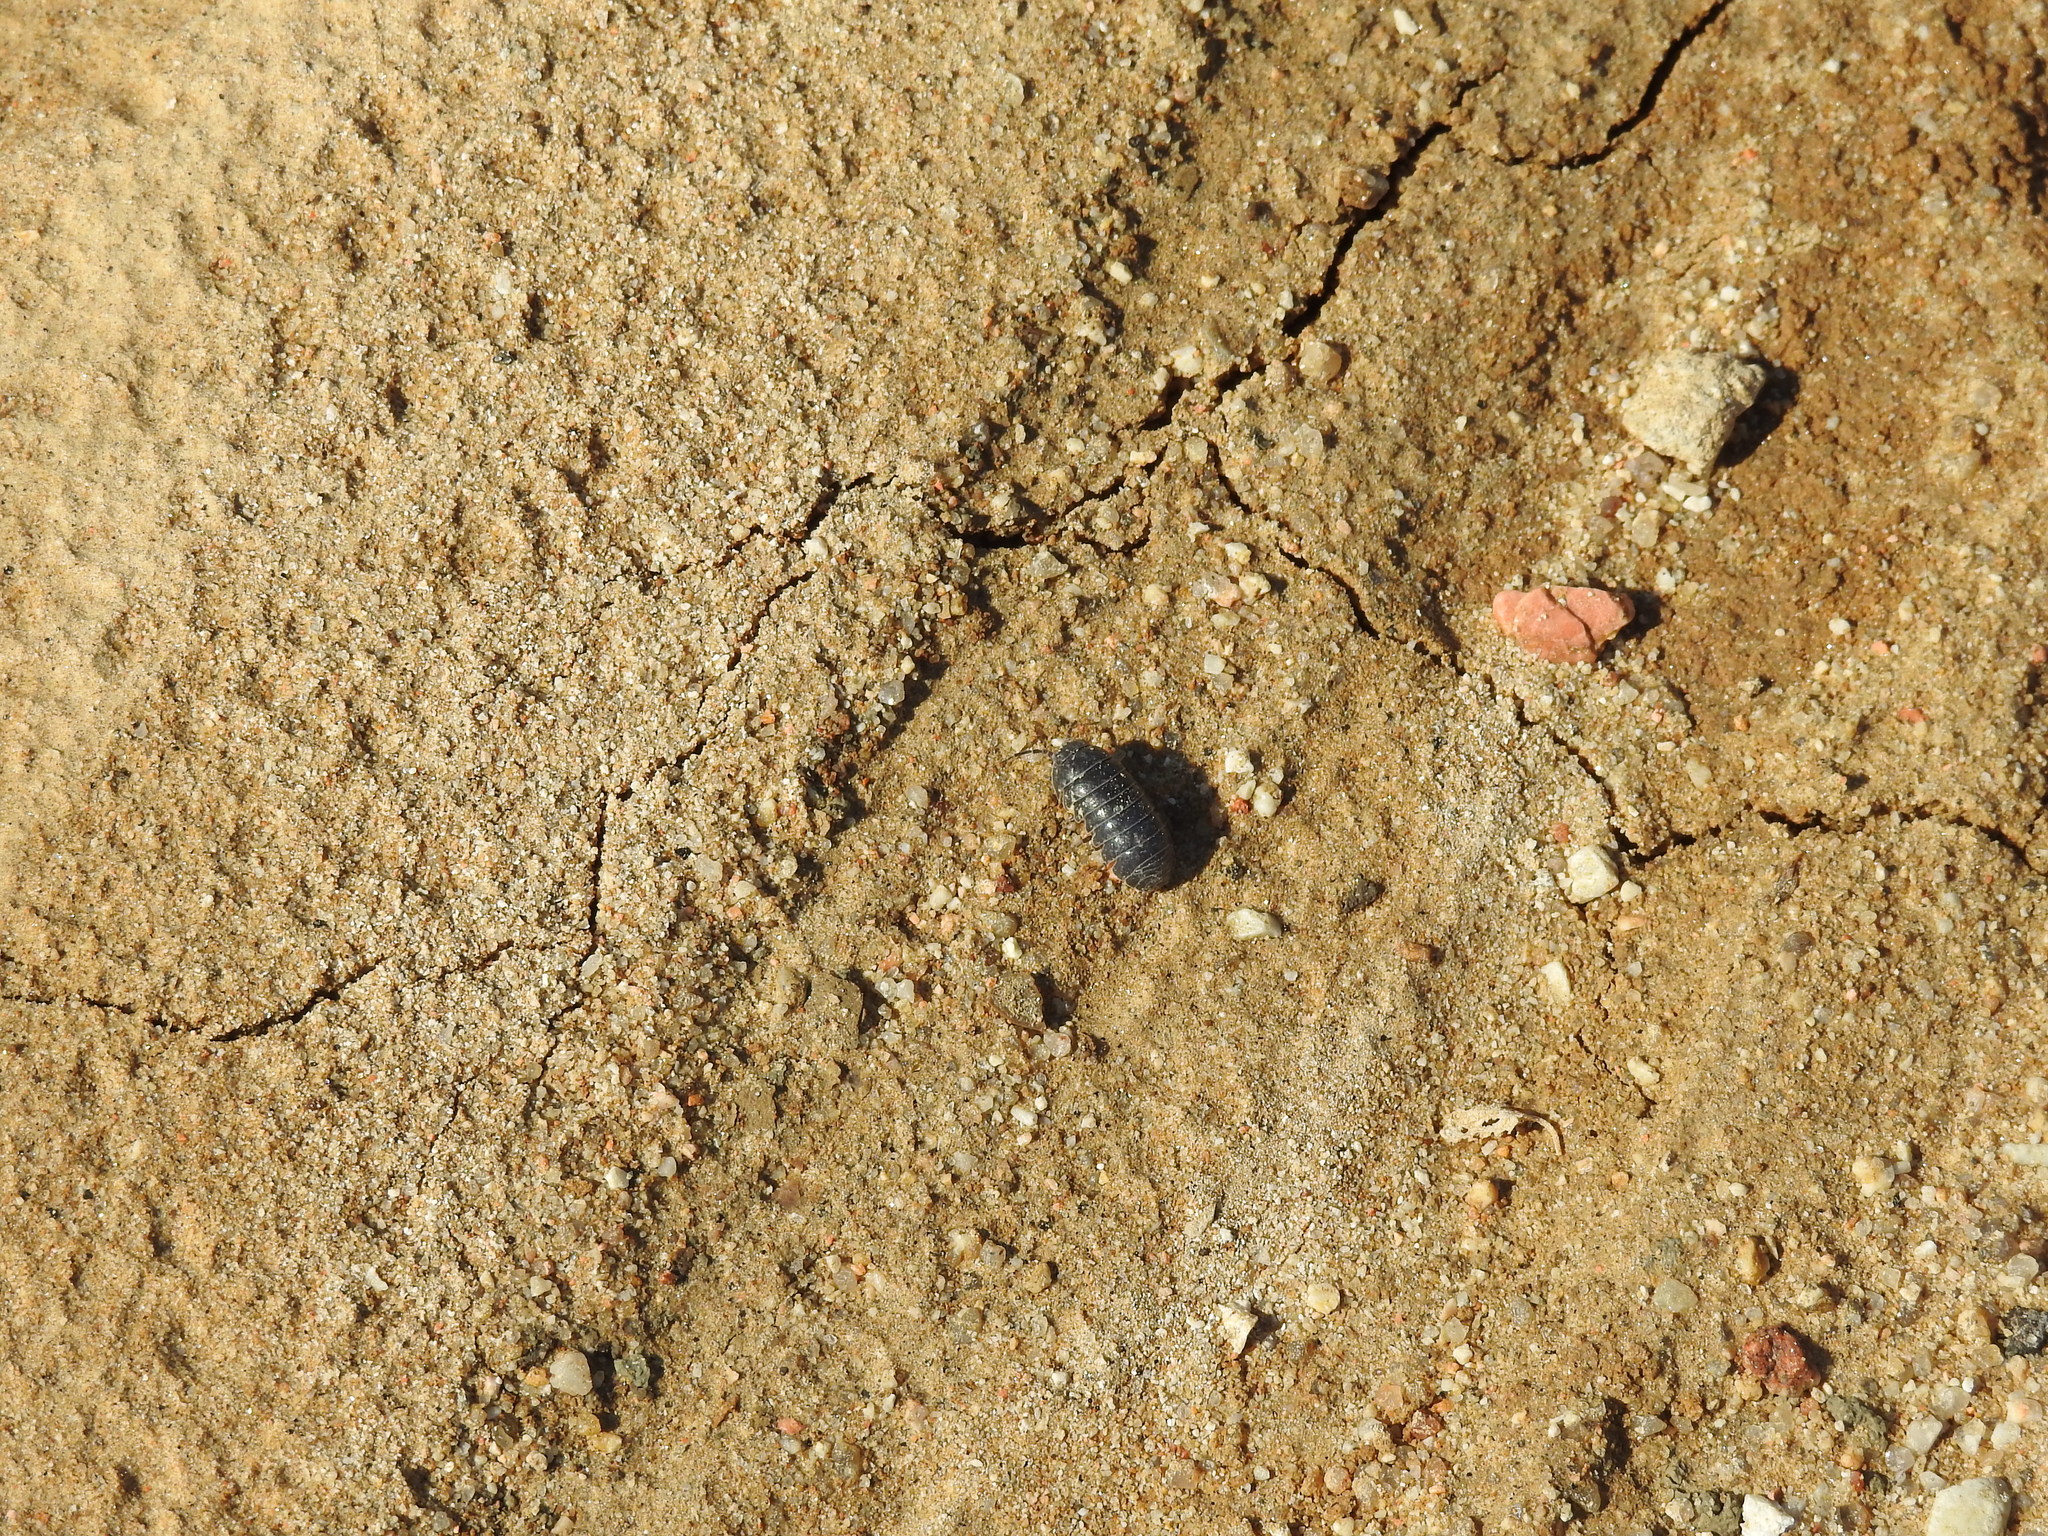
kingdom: Animalia
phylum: Arthropoda
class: Malacostraca
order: Isopoda
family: Armadillidiidae
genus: Armadillidium
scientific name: Armadillidium vulgare
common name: Common pill woodlouse
